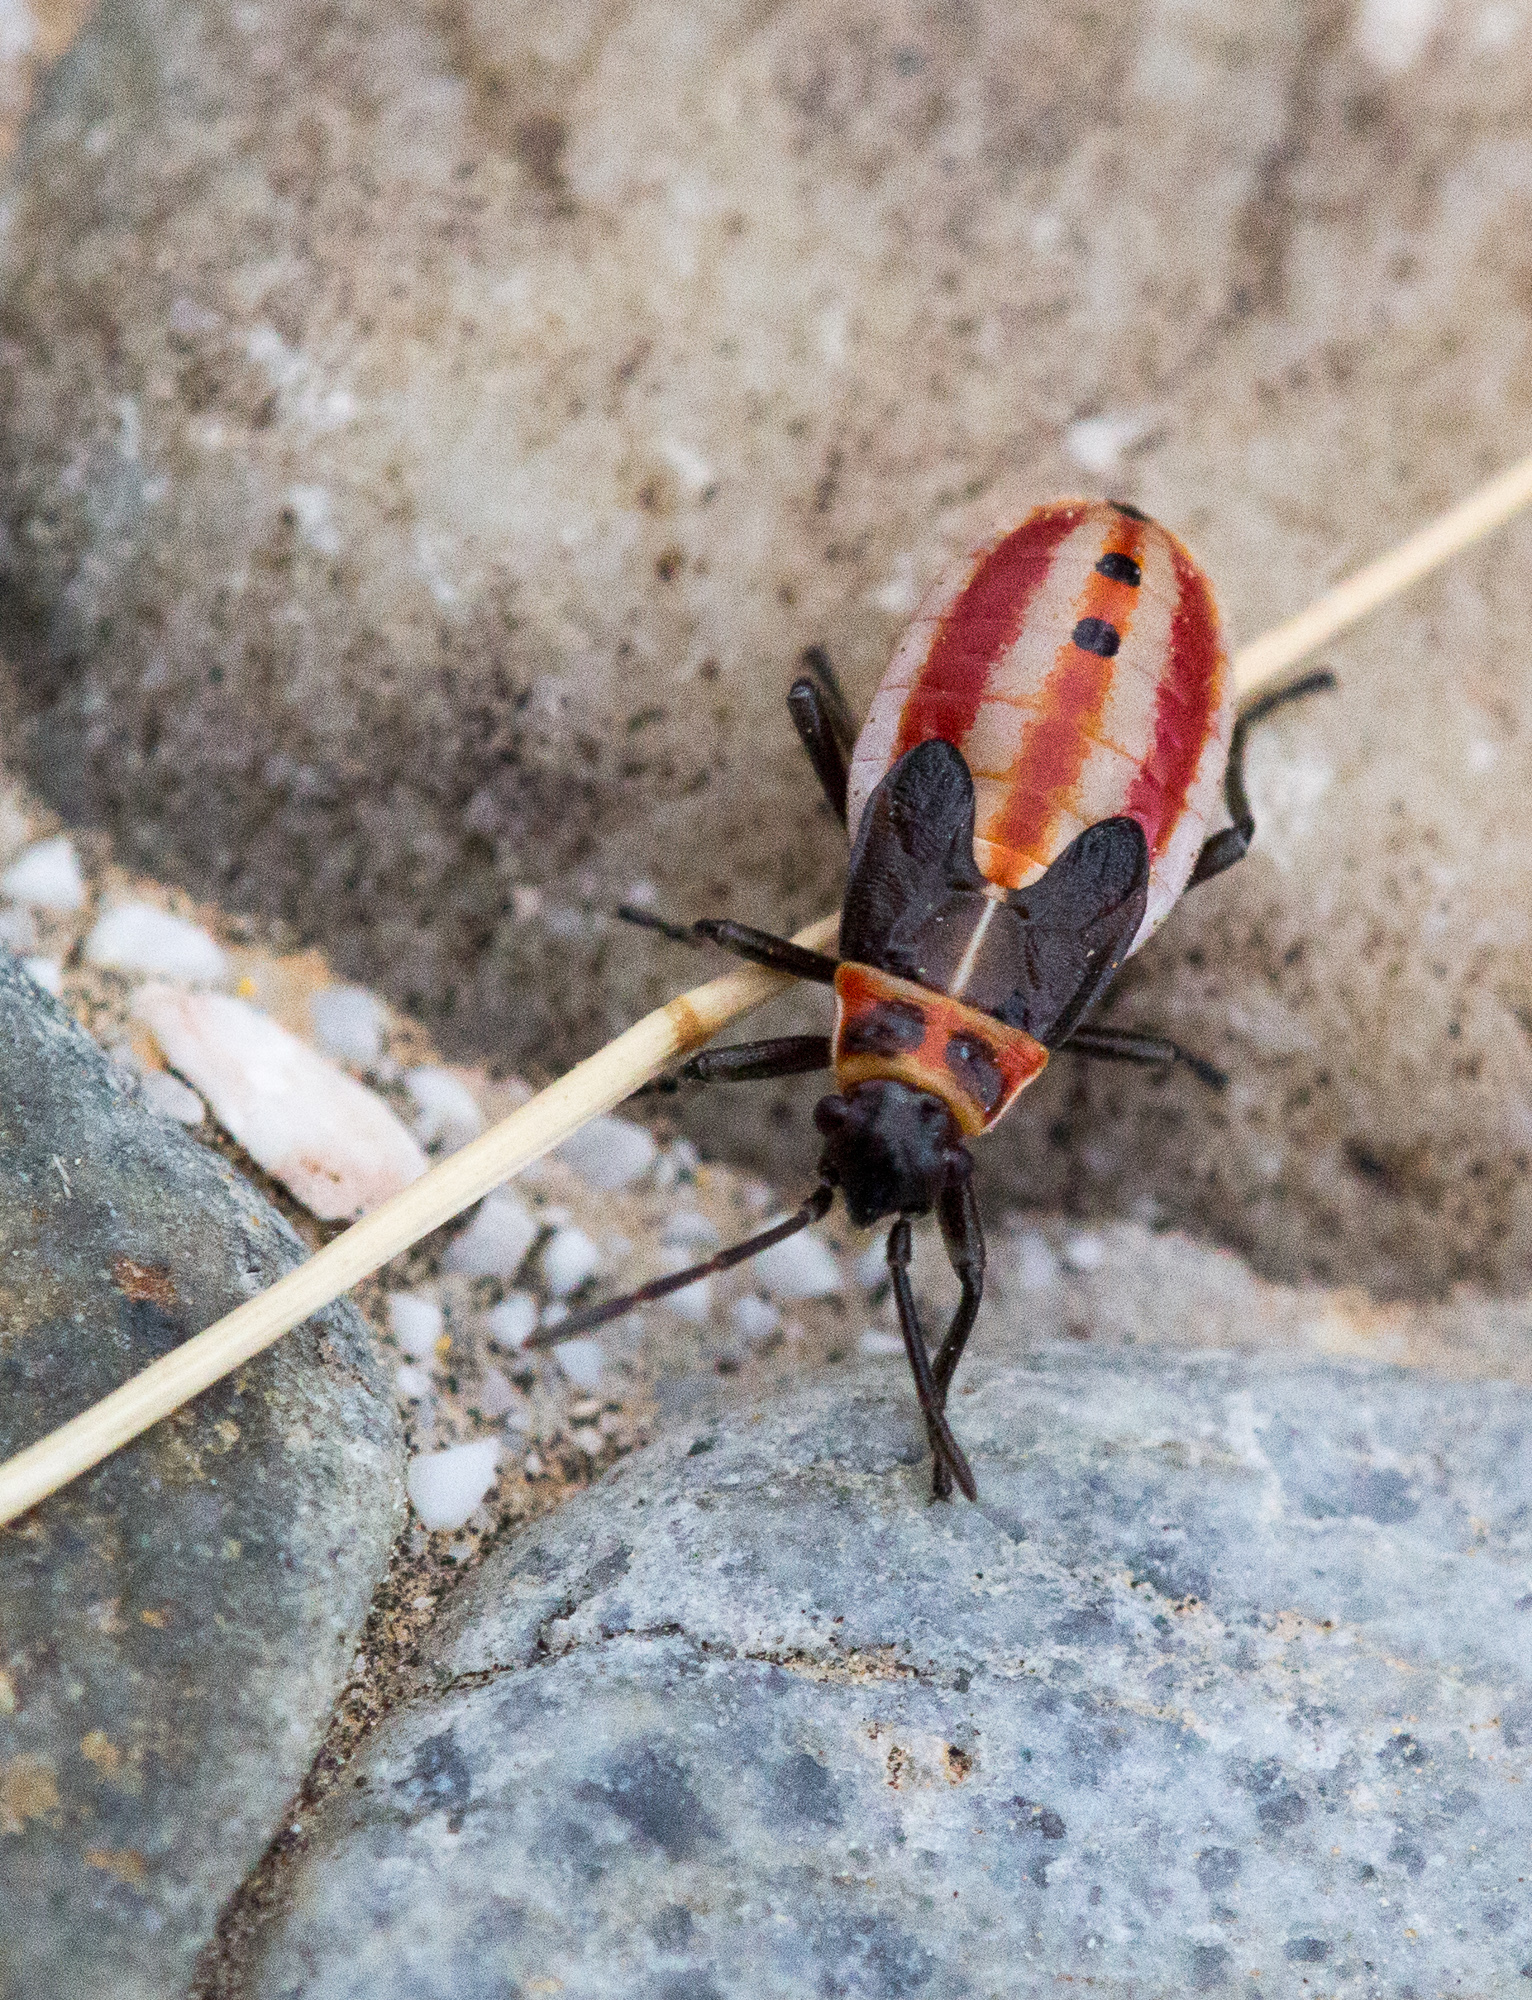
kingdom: Animalia
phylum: Arthropoda
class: Insecta
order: Hemiptera
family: Lygaeidae
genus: Lygaeus
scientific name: Lygaeus creticus
